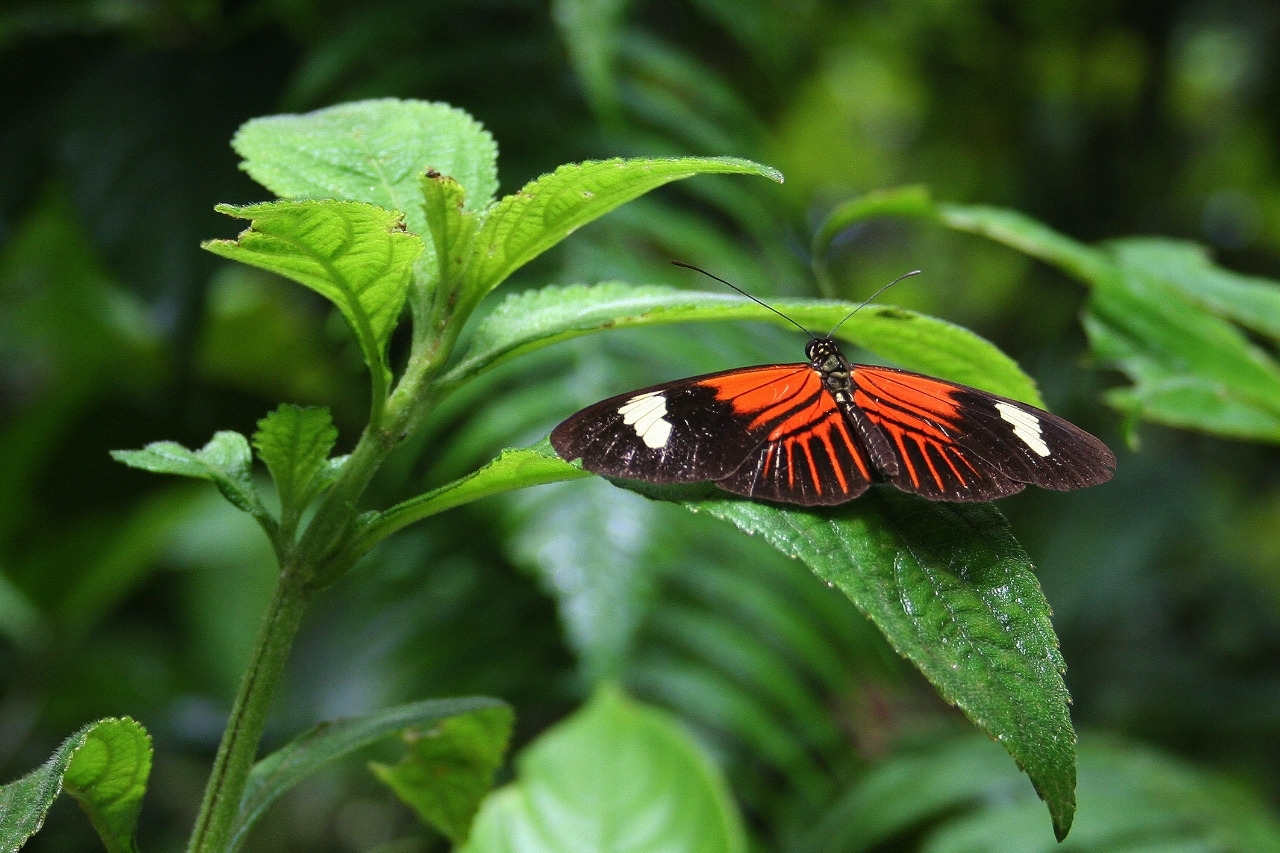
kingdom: Animalia
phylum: Arthropoda
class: Insecta
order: Lepidoptera
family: Nymphalidae
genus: Heliconius
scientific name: Heliconius melpomene
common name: Postman
